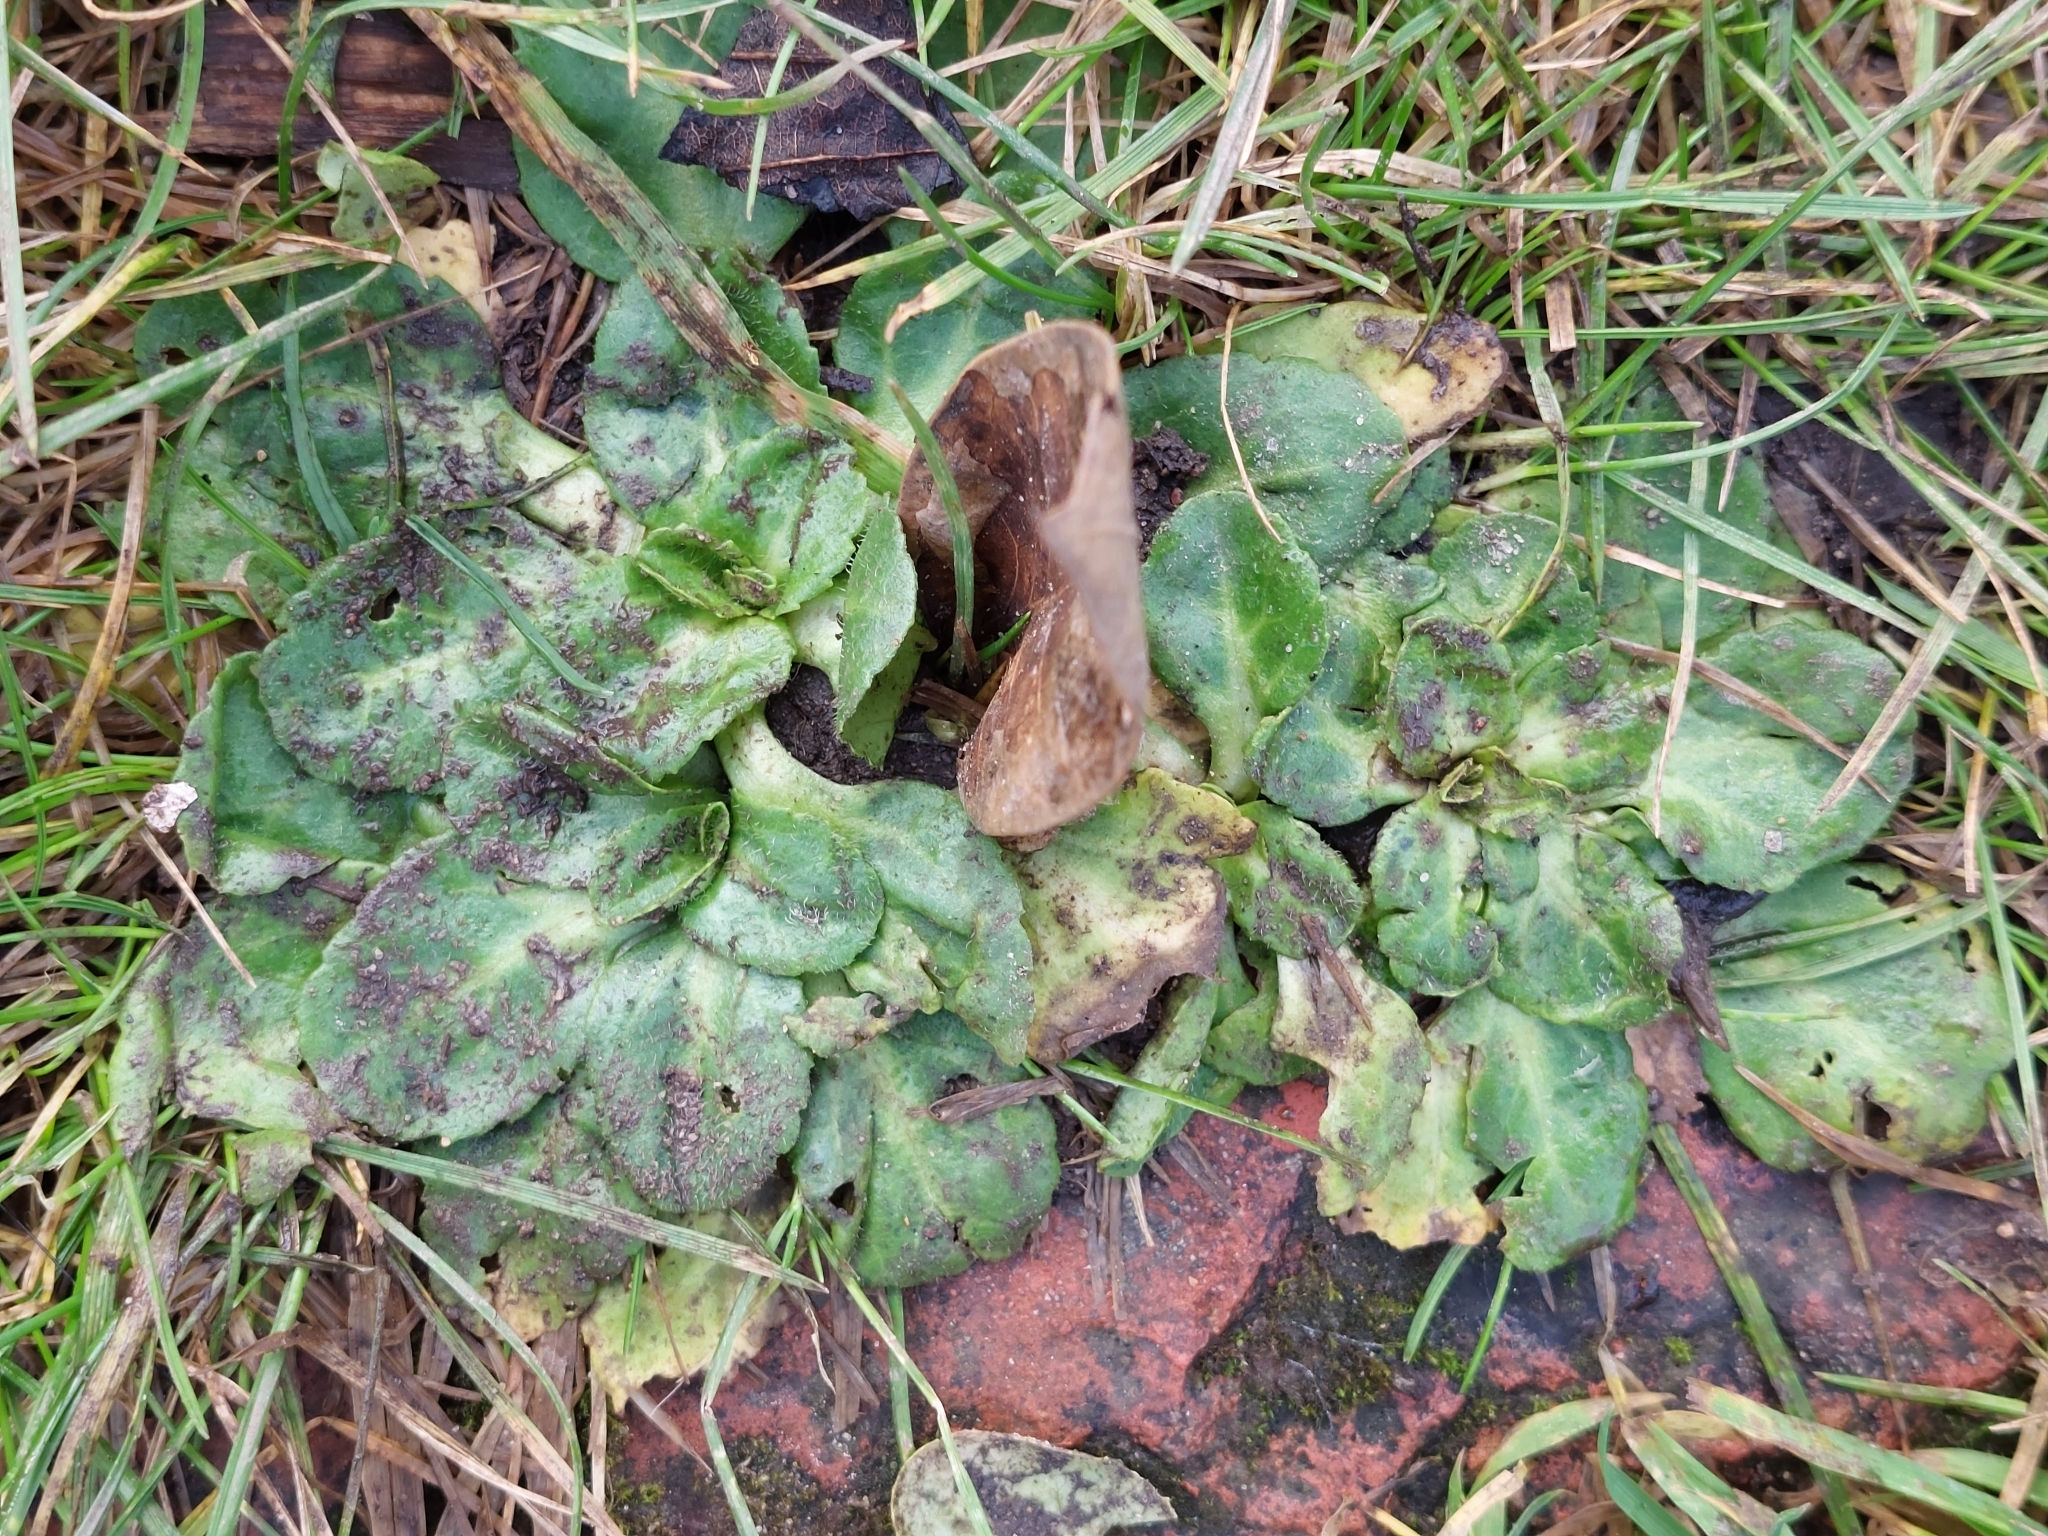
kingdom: Plantae
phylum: Tracheophyta
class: Magnoliopsida
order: Asterales
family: Asteraceae
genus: Bellis
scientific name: Bellis perennis
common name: Lawndaisy
